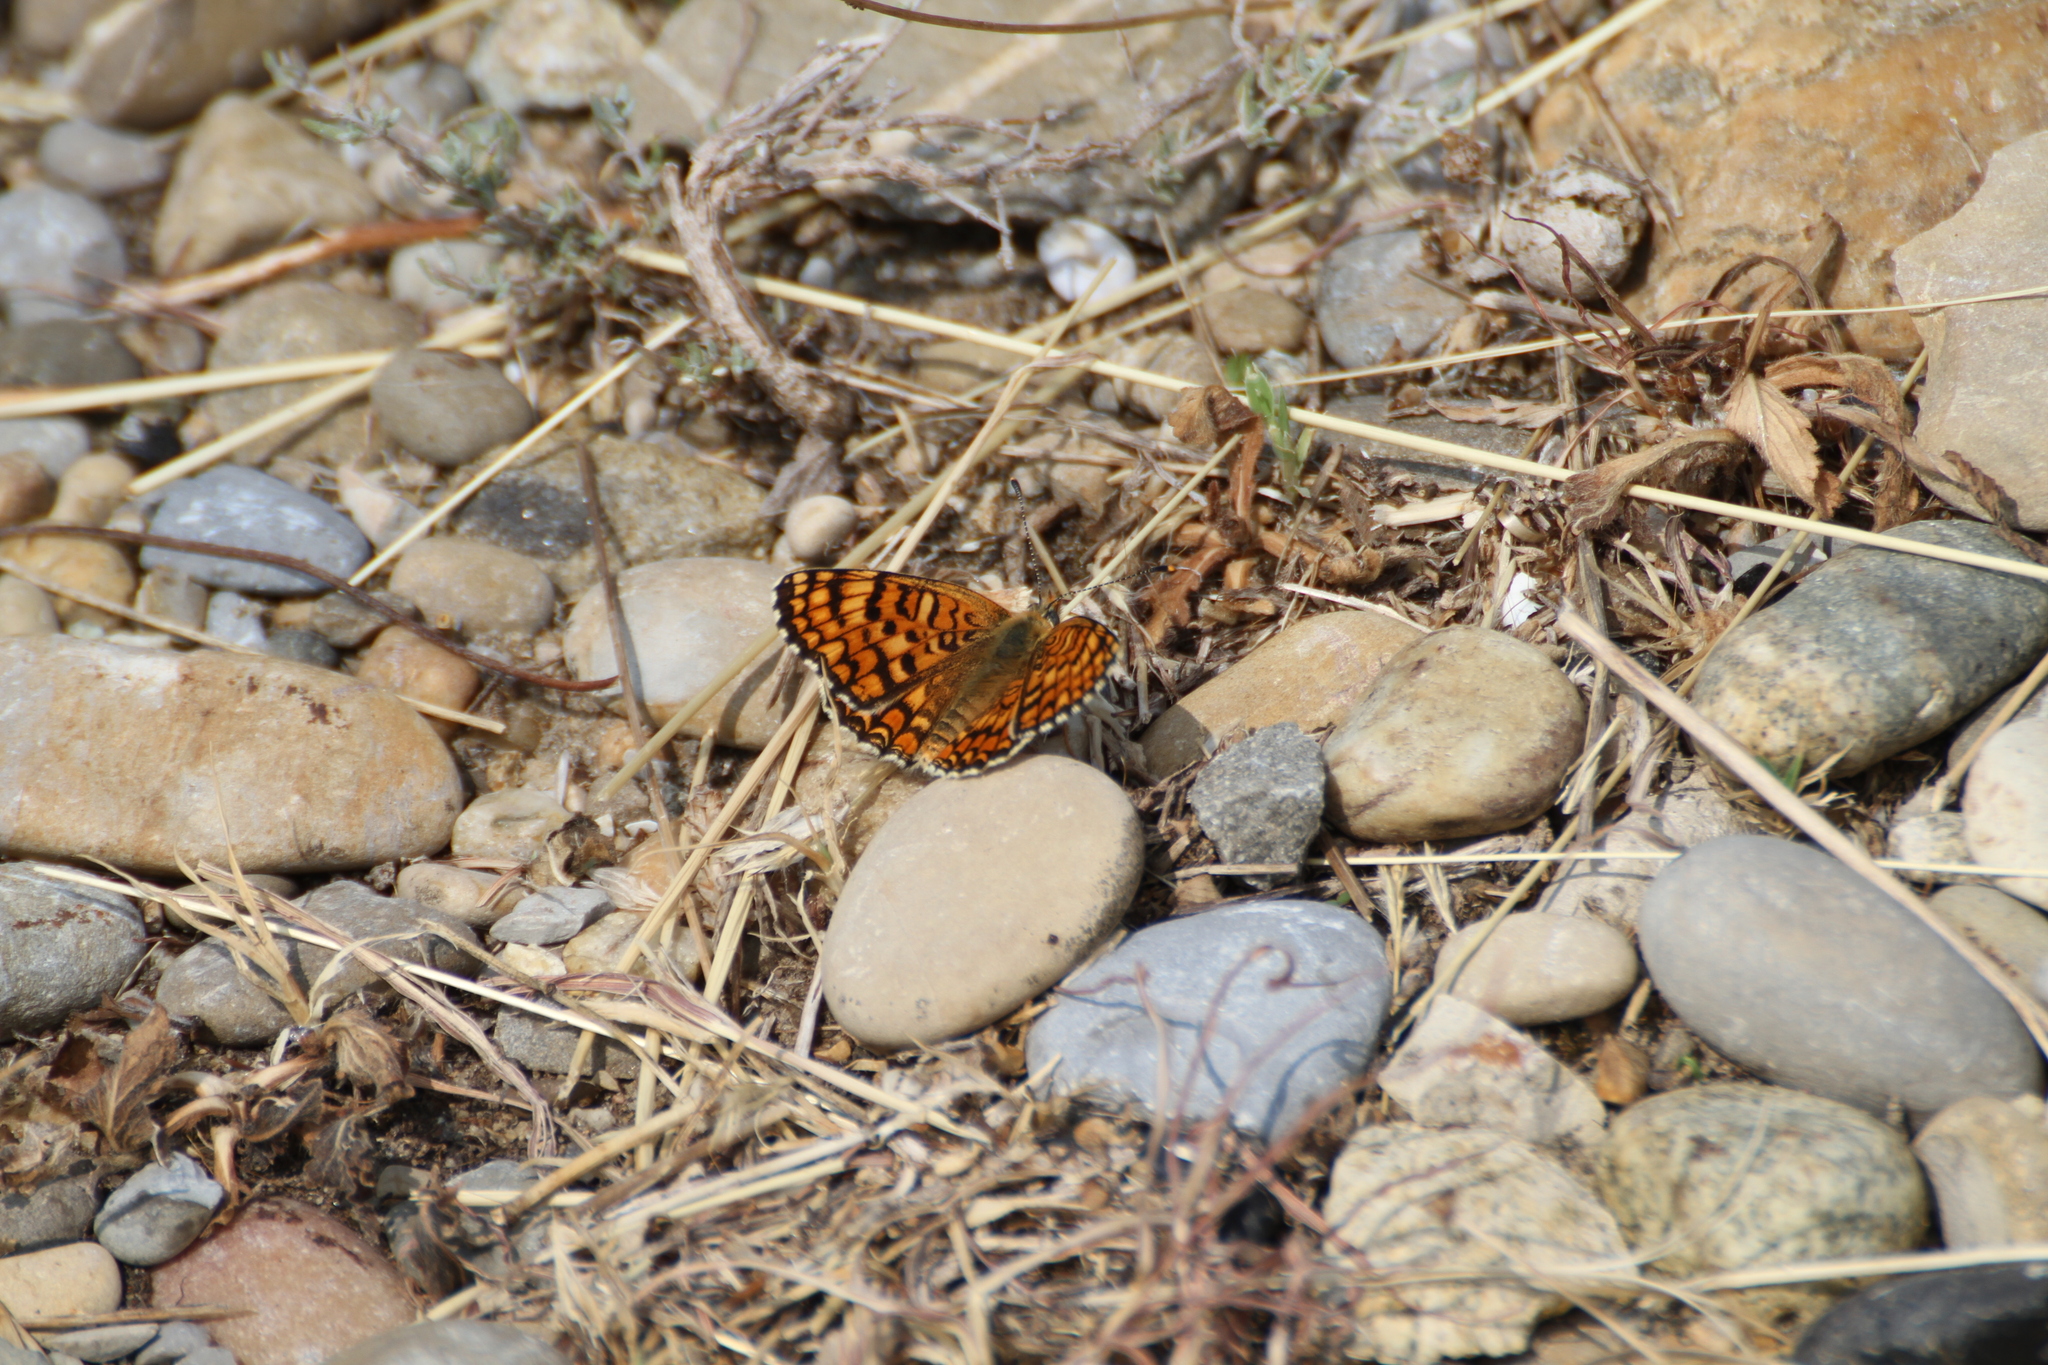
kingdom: Animalia
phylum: Arthropoda
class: Insecta
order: Lepidoptera
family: Nymphalidae
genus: Melitaea
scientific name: Melitaea phoebe
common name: Knapweed fritillary
